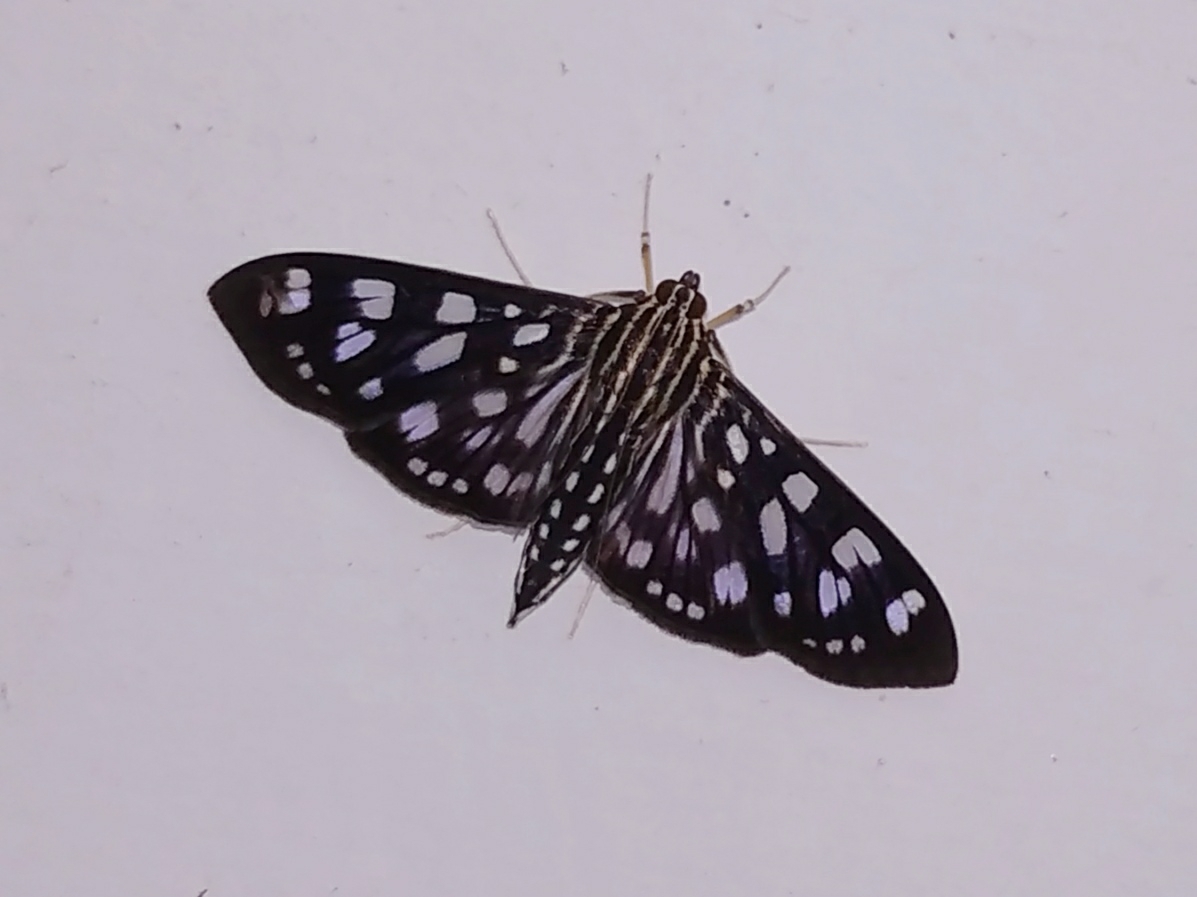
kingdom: Animalia
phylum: Arthropoda
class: Insecta
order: Lepidoptera
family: Crambidae
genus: Pygospila
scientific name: Pygospila tyres
